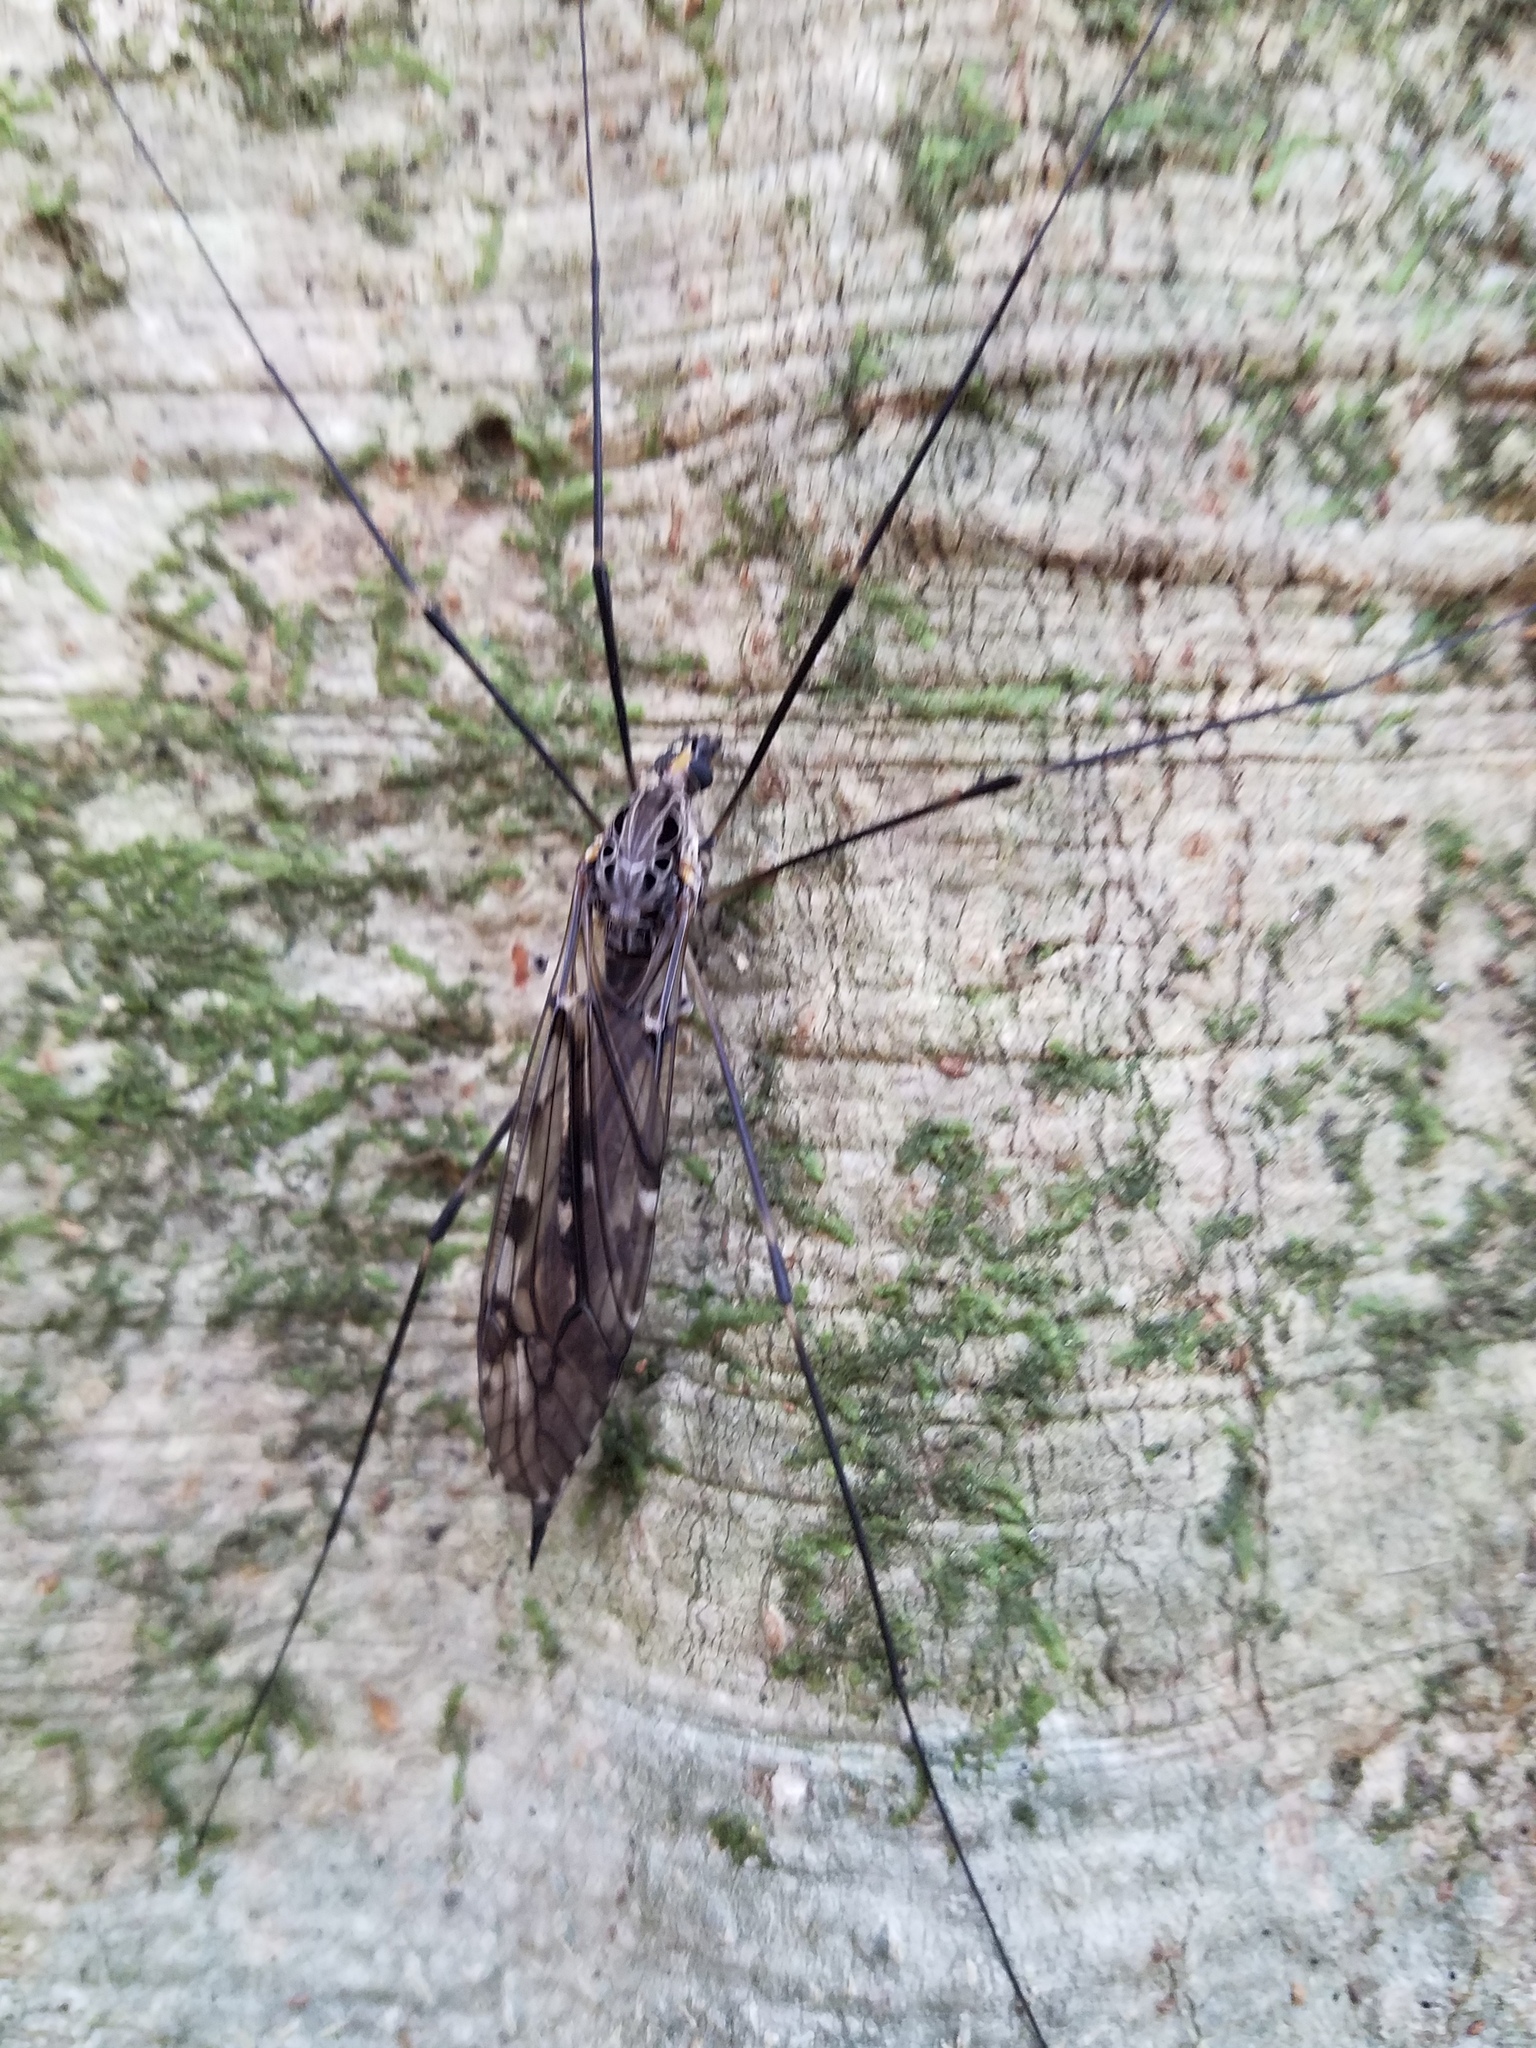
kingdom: Animalia
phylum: Arthropoda
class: Insecta
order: Diptera
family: Tipulidae
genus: Tipula
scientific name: Tipula abdominalis
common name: Giant crane fly
